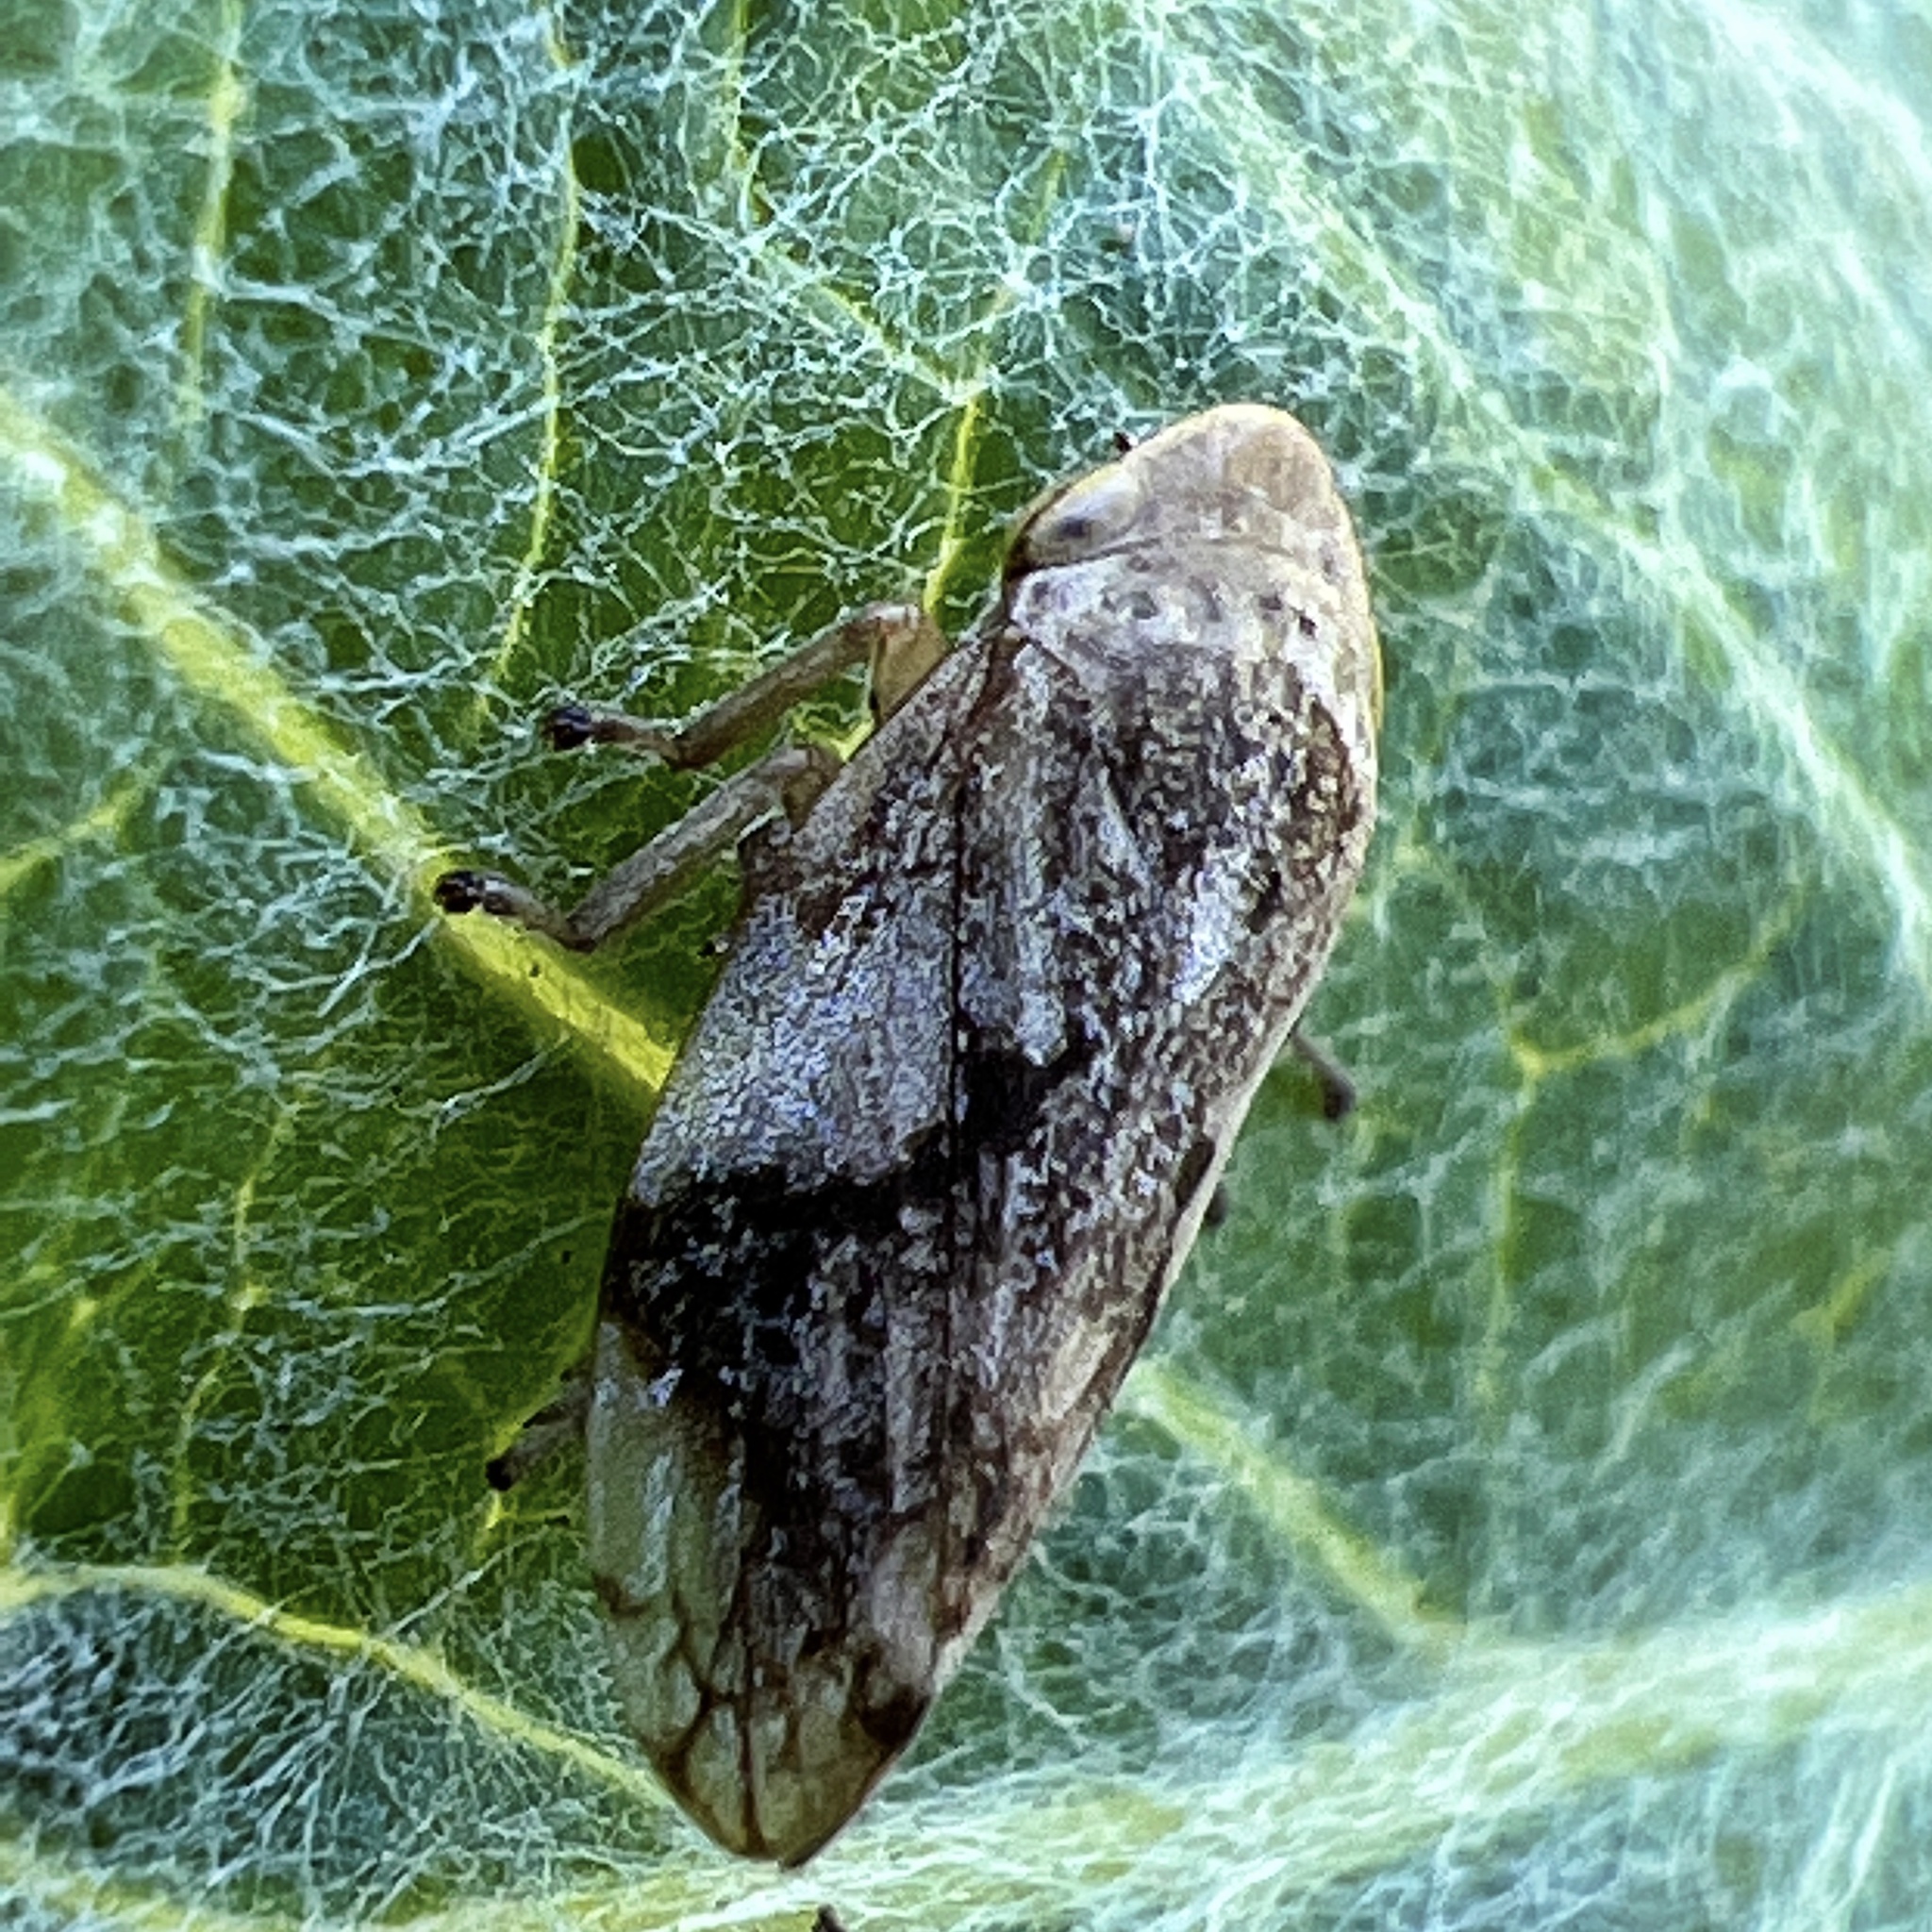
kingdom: Animalia
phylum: Arthropoda
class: Insecta
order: Hemiptera
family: Aphrophoridae
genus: Philaenus
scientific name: Philaenus spumarius
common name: Meadow spittlebug
